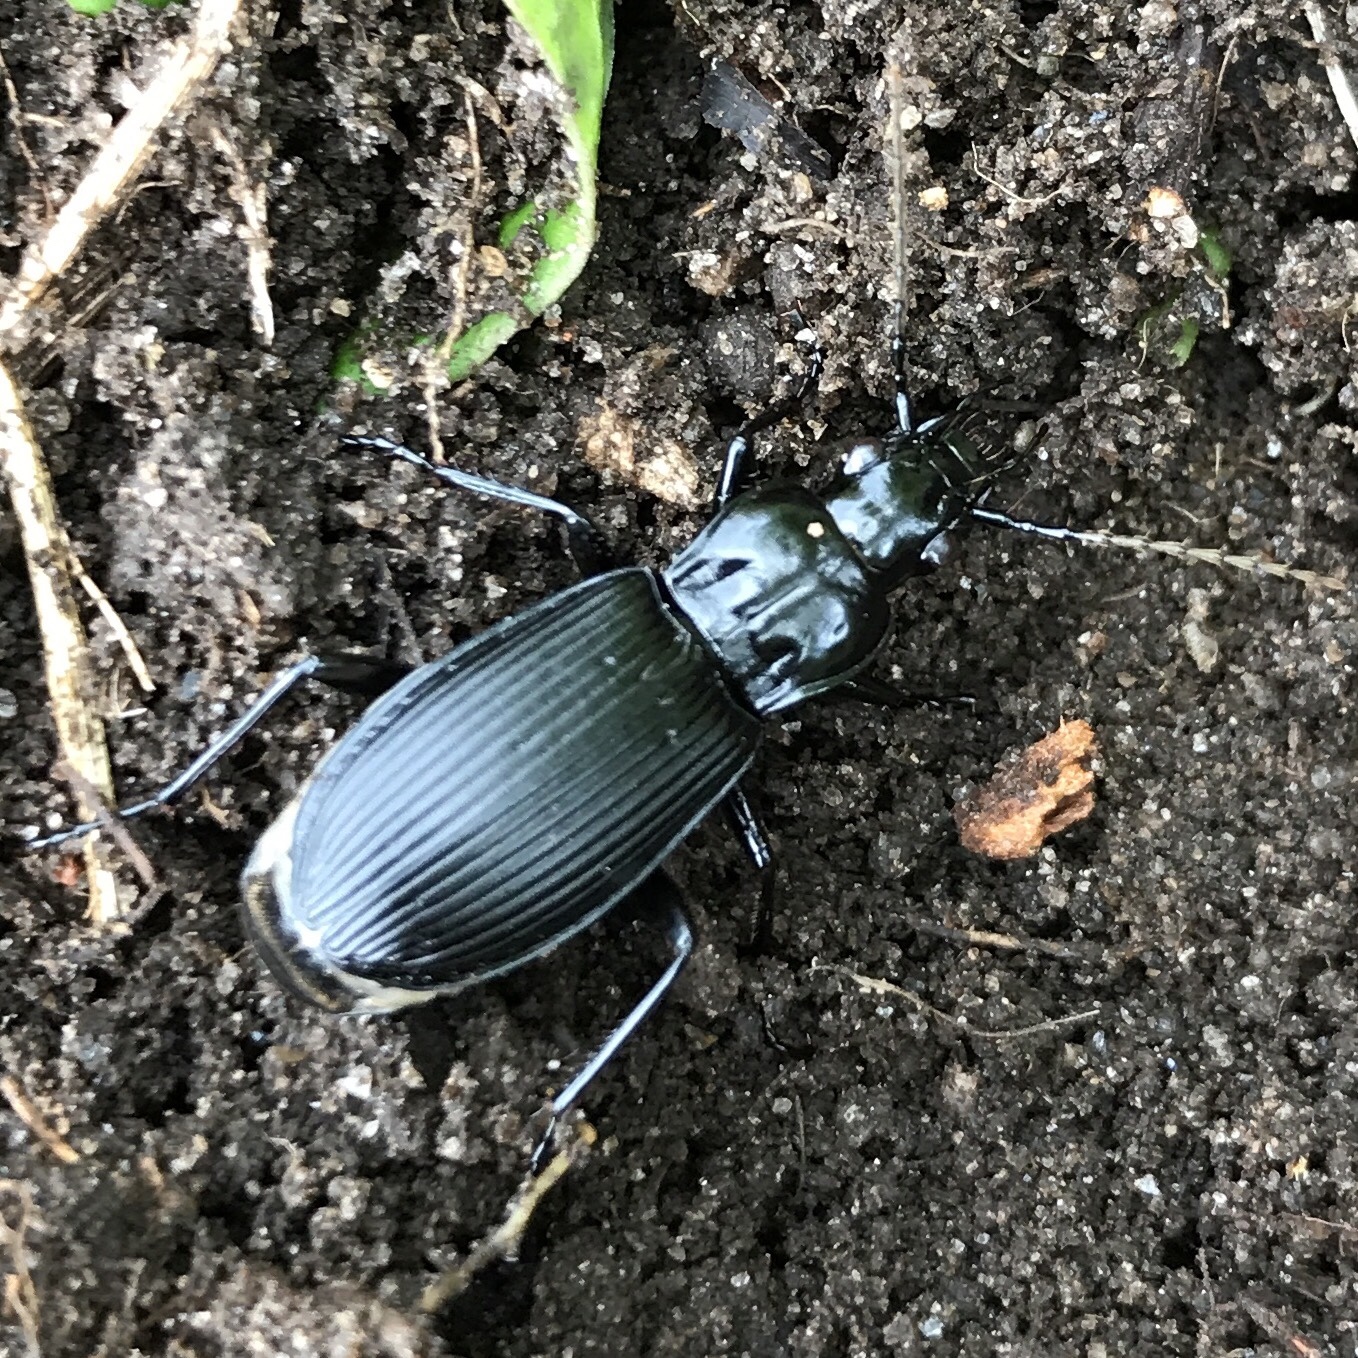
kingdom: Animalia
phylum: Arthropoda
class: Insecta
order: Coleoptera
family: Carabidae
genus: Pterostichus
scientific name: Pterostichus niger
